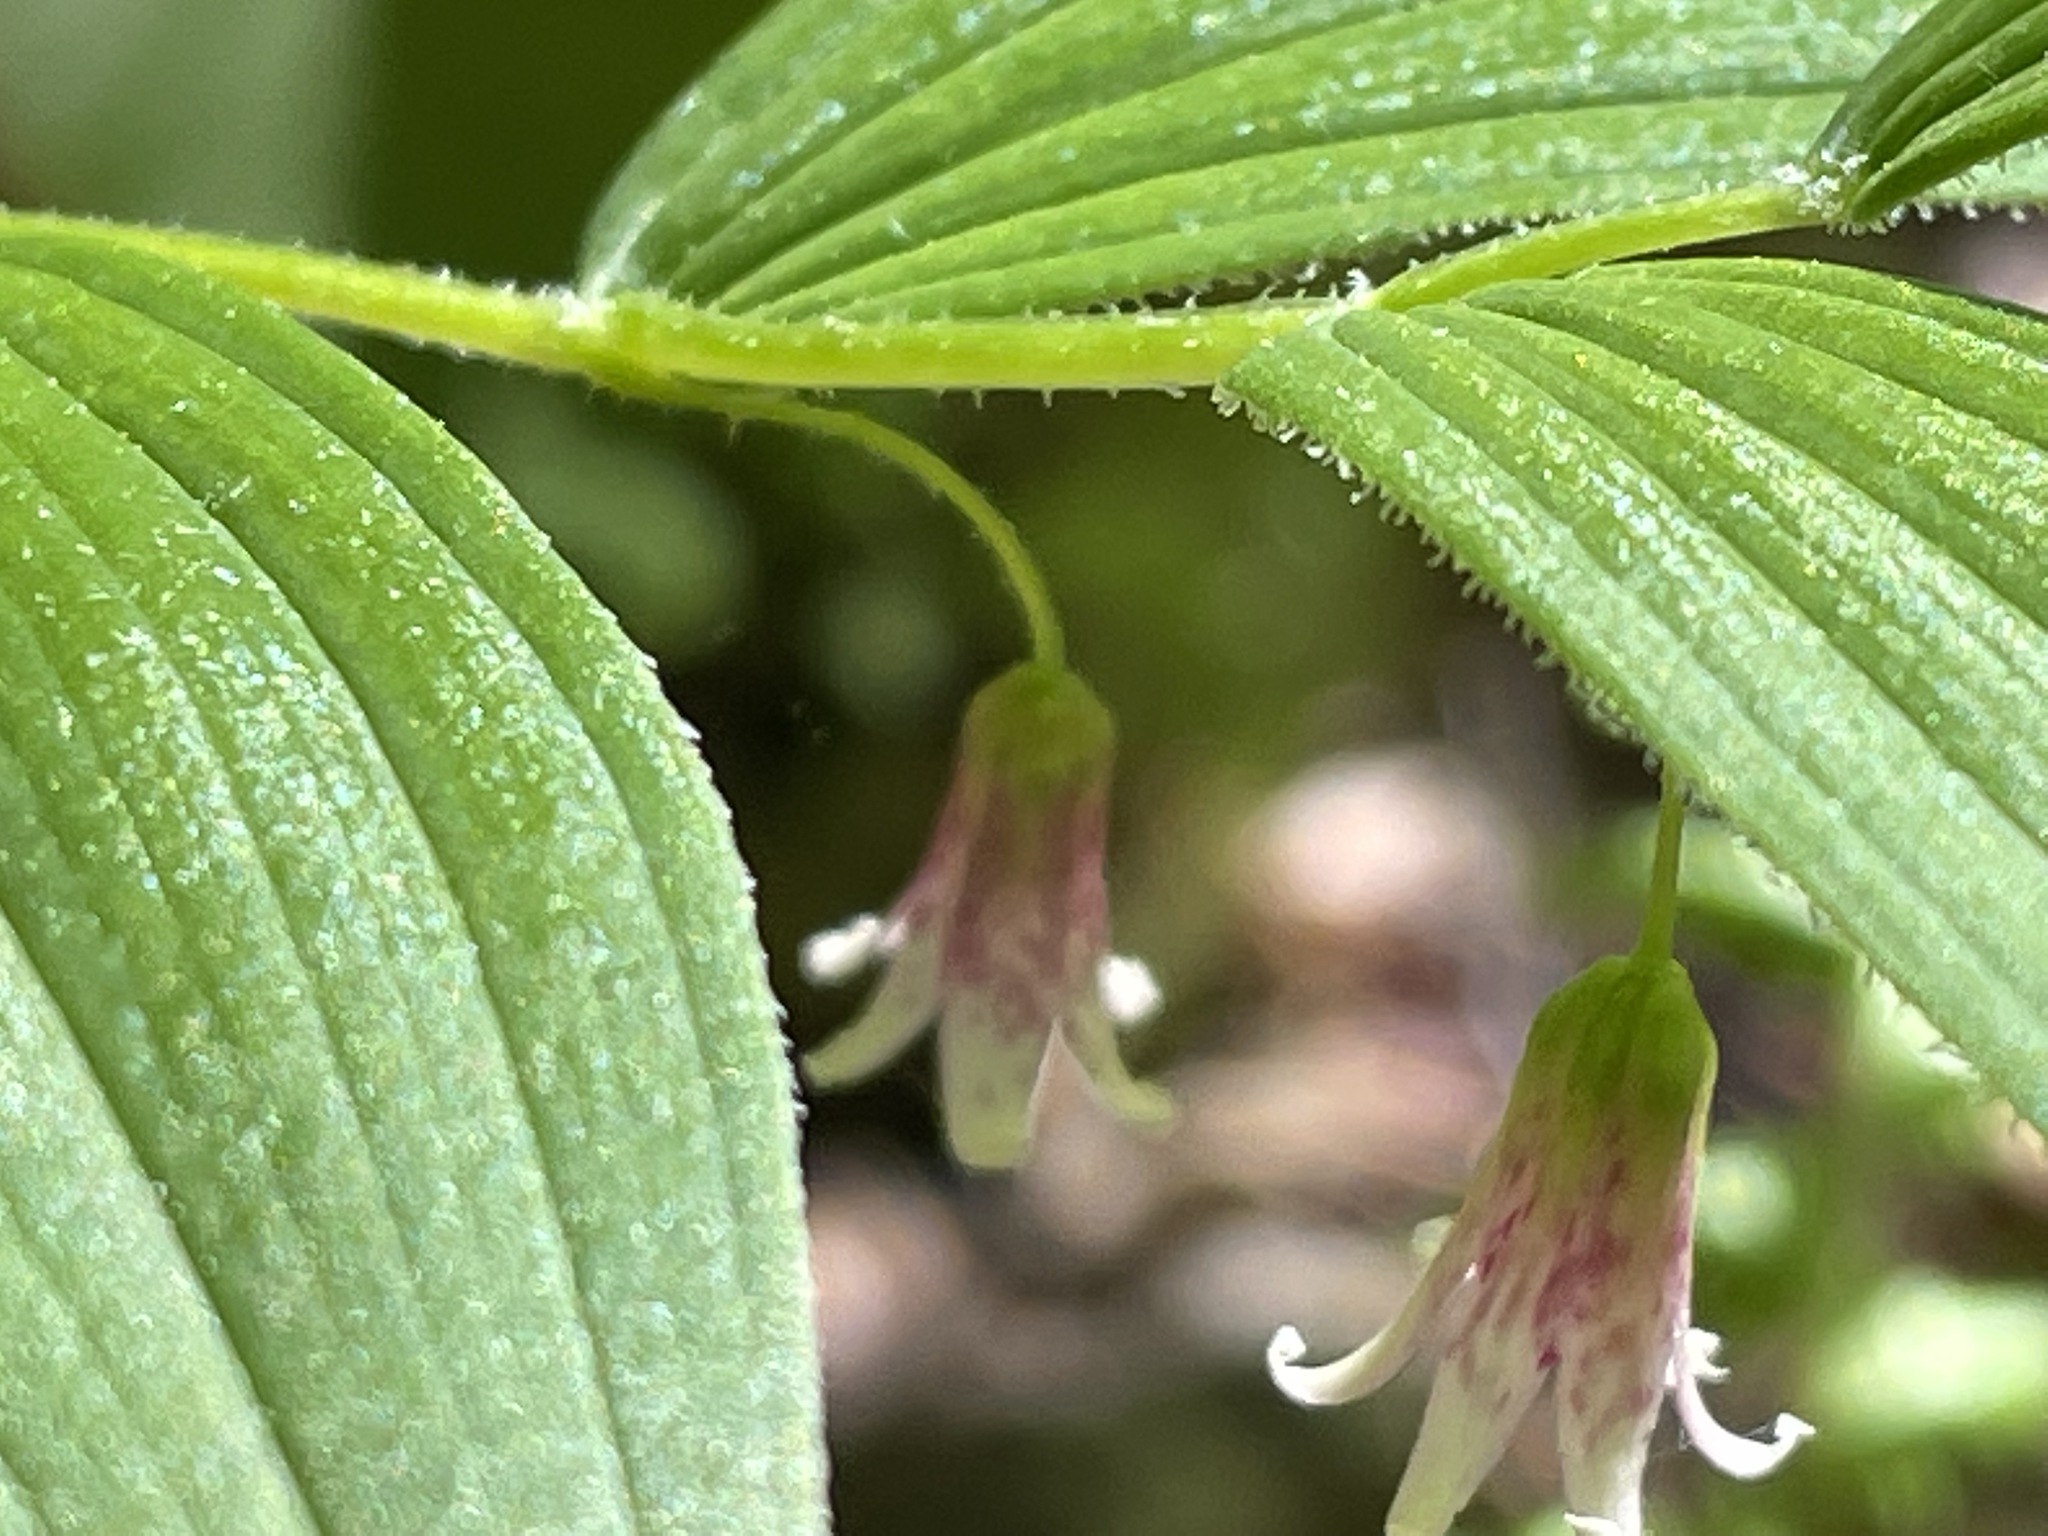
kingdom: Plantae
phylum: Tracheophyta
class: Liliopsida
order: Liliales
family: Liliaceae
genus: Streptopus
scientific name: Streptopus lanceolatus
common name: Rose mandarin
